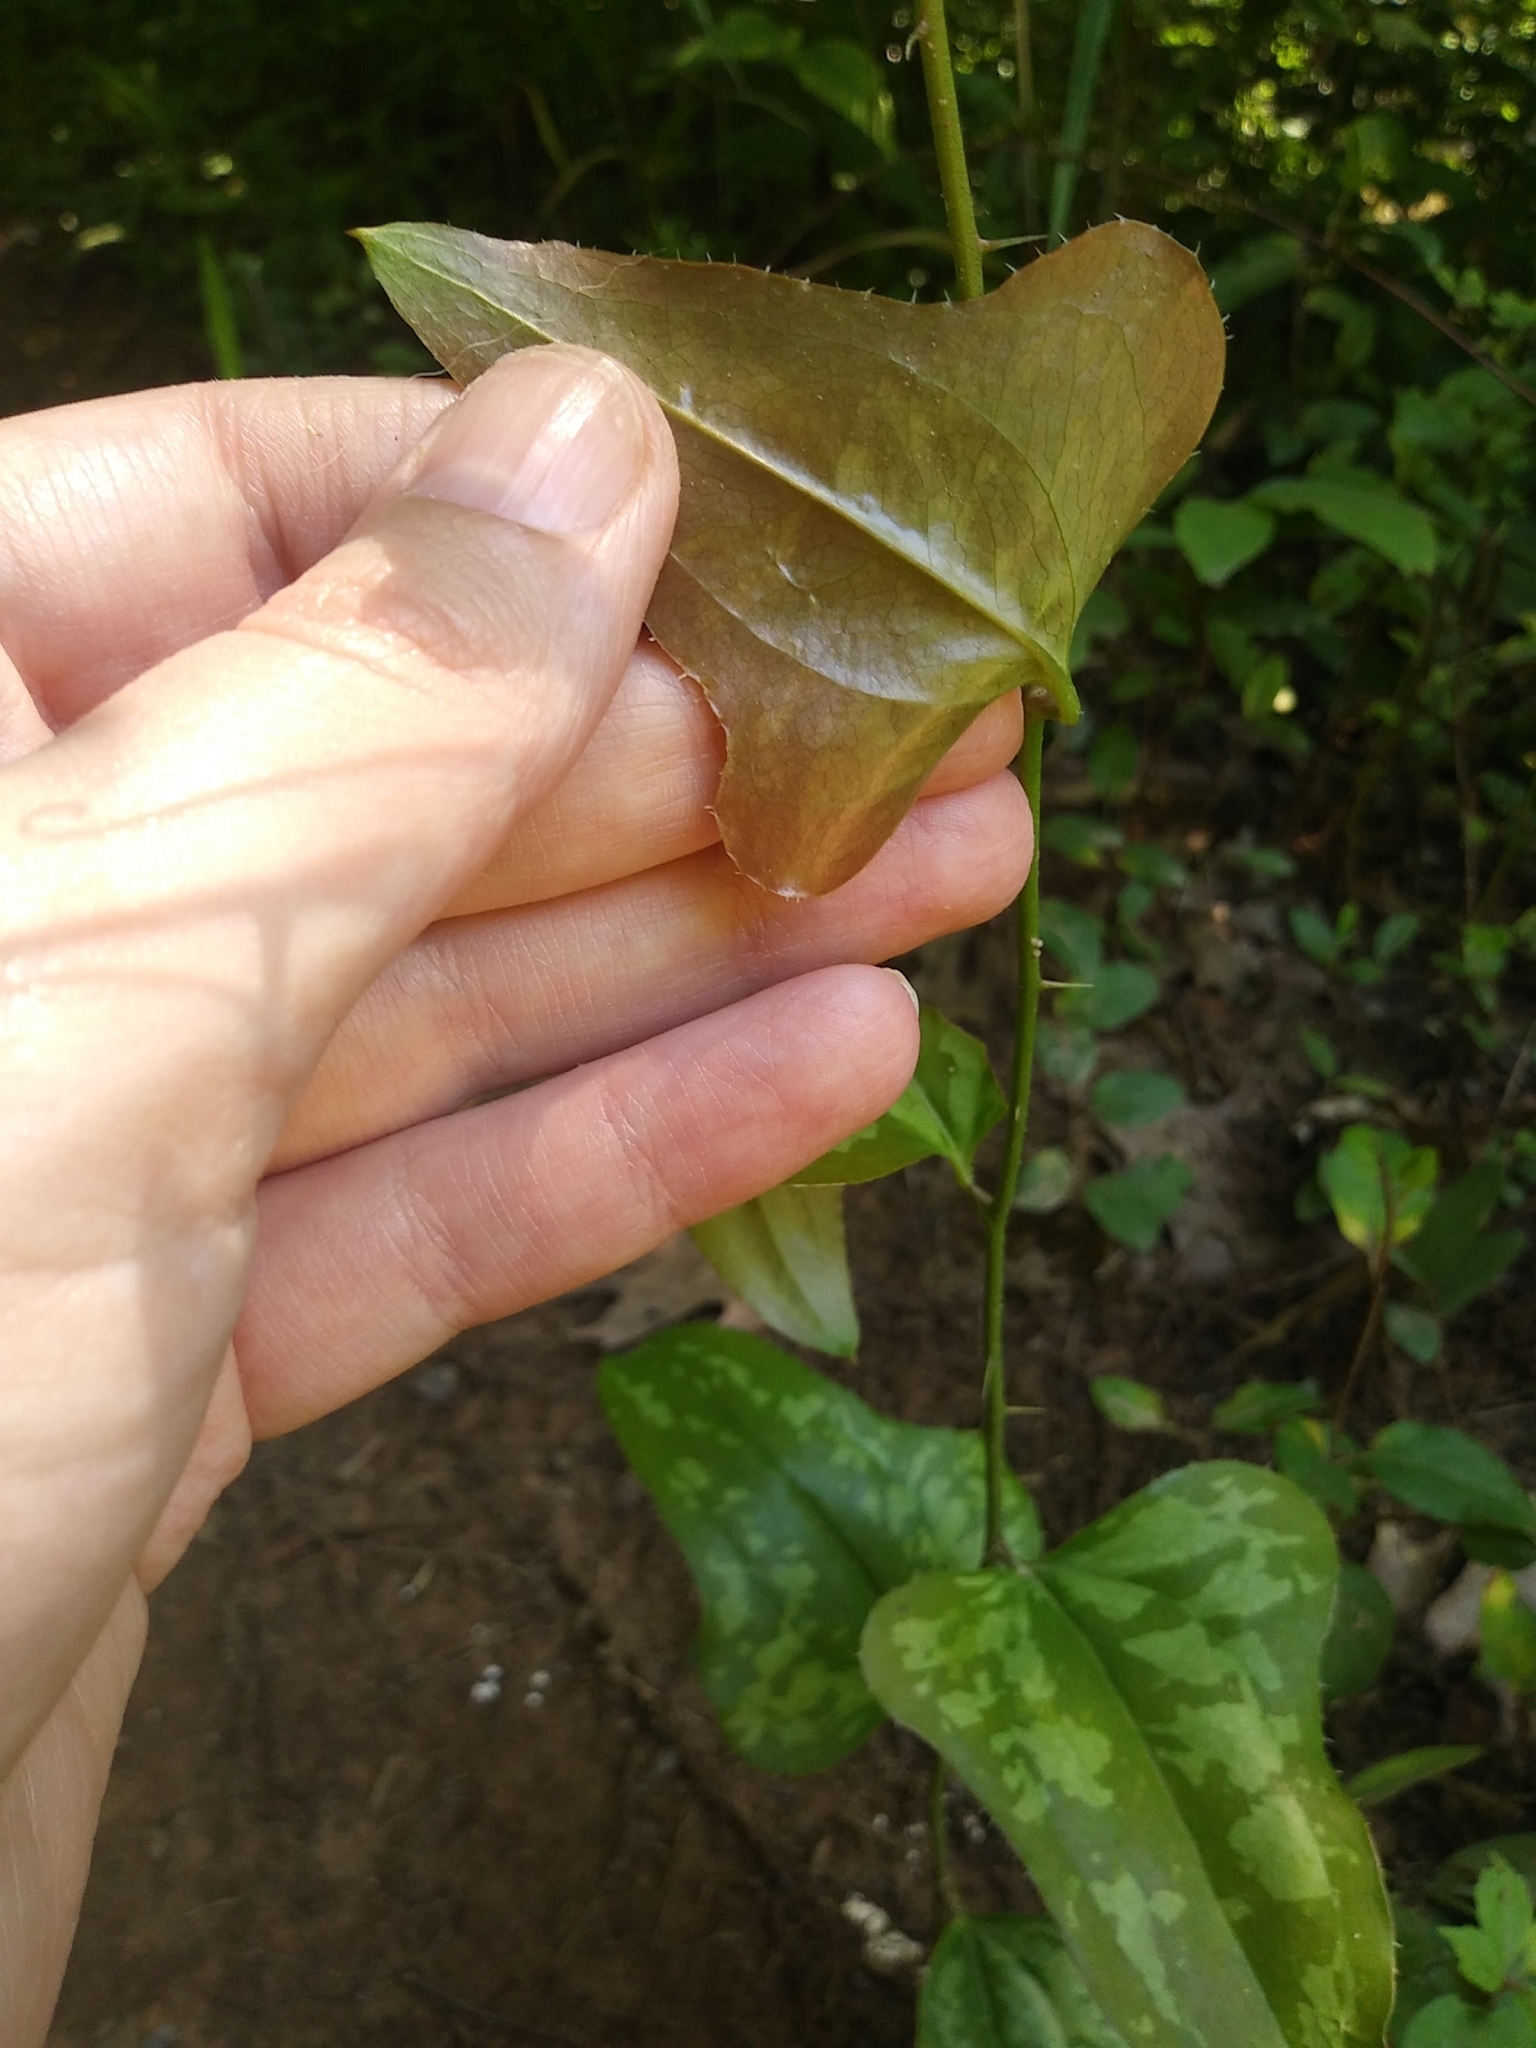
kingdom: Plantae
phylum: Tracheophyta
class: Liliopsida
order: Liliales
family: Smilacaceae
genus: Smilax
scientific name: Smilax bona-nox
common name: Catbrier
